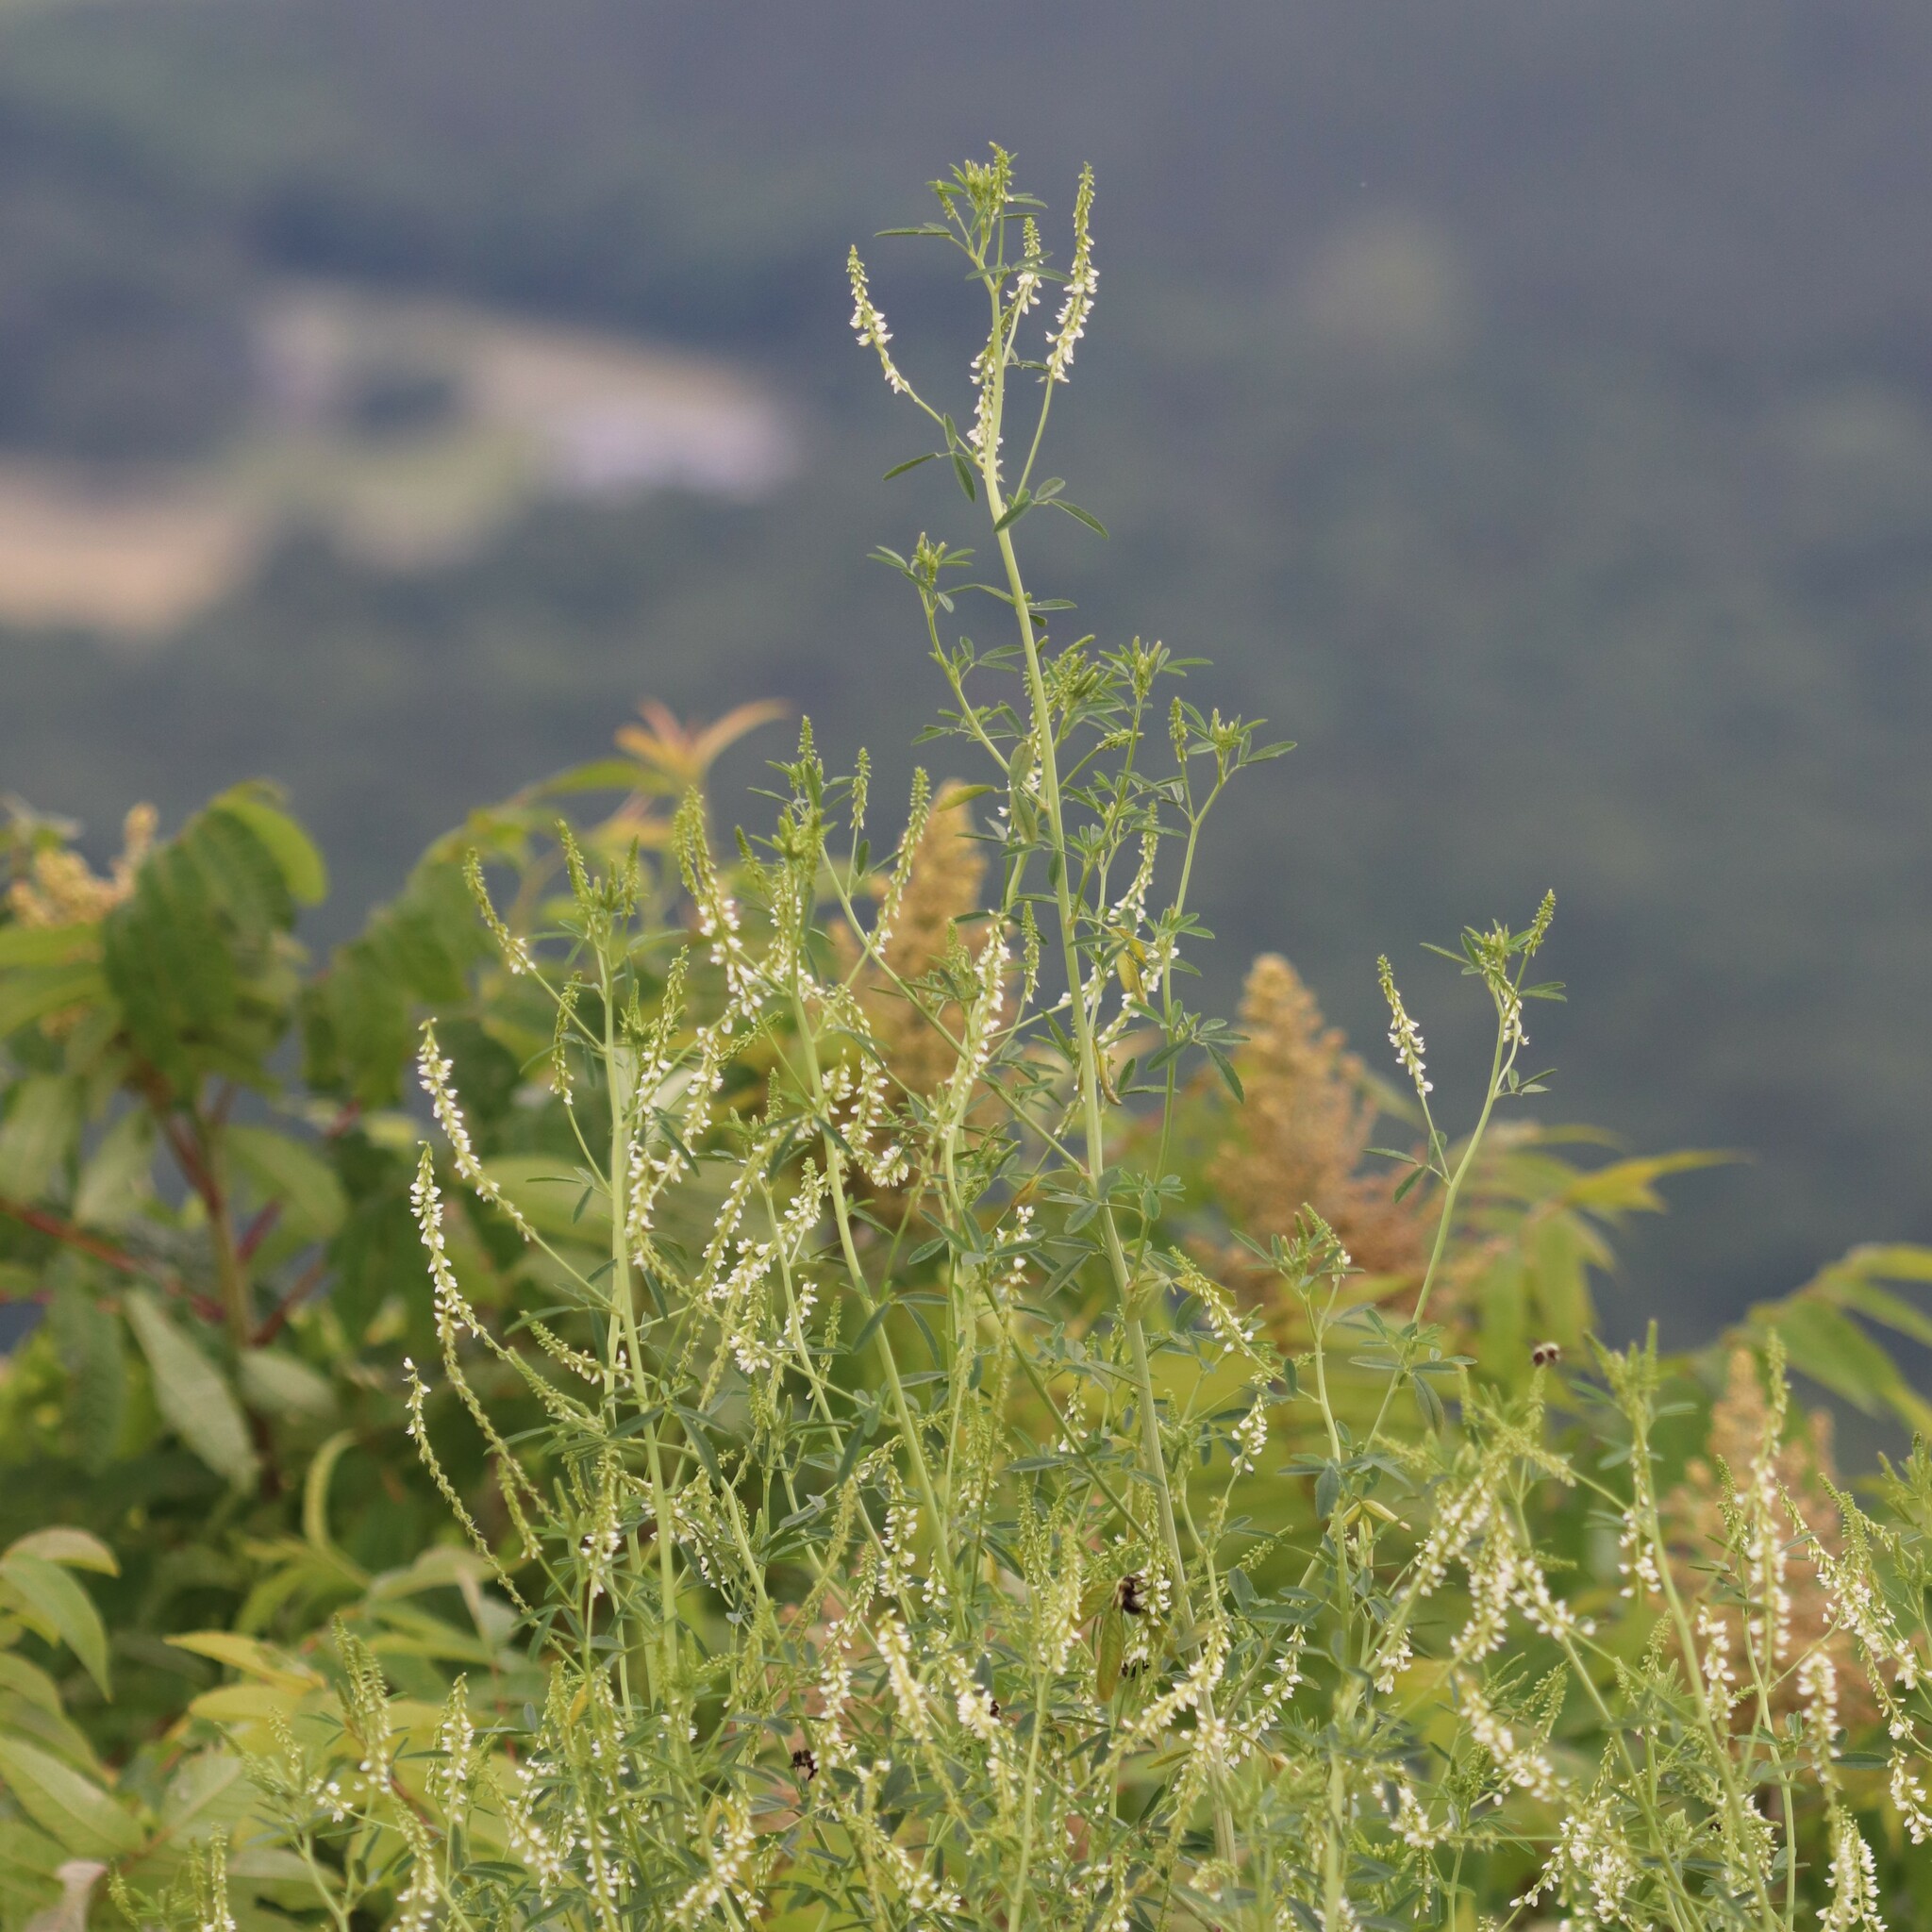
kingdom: Plantae
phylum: Tracheophyta
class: Magnoliopsida
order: Fabales
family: Fabaceae
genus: Melilotus
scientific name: Melilotus albus
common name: White melilot
